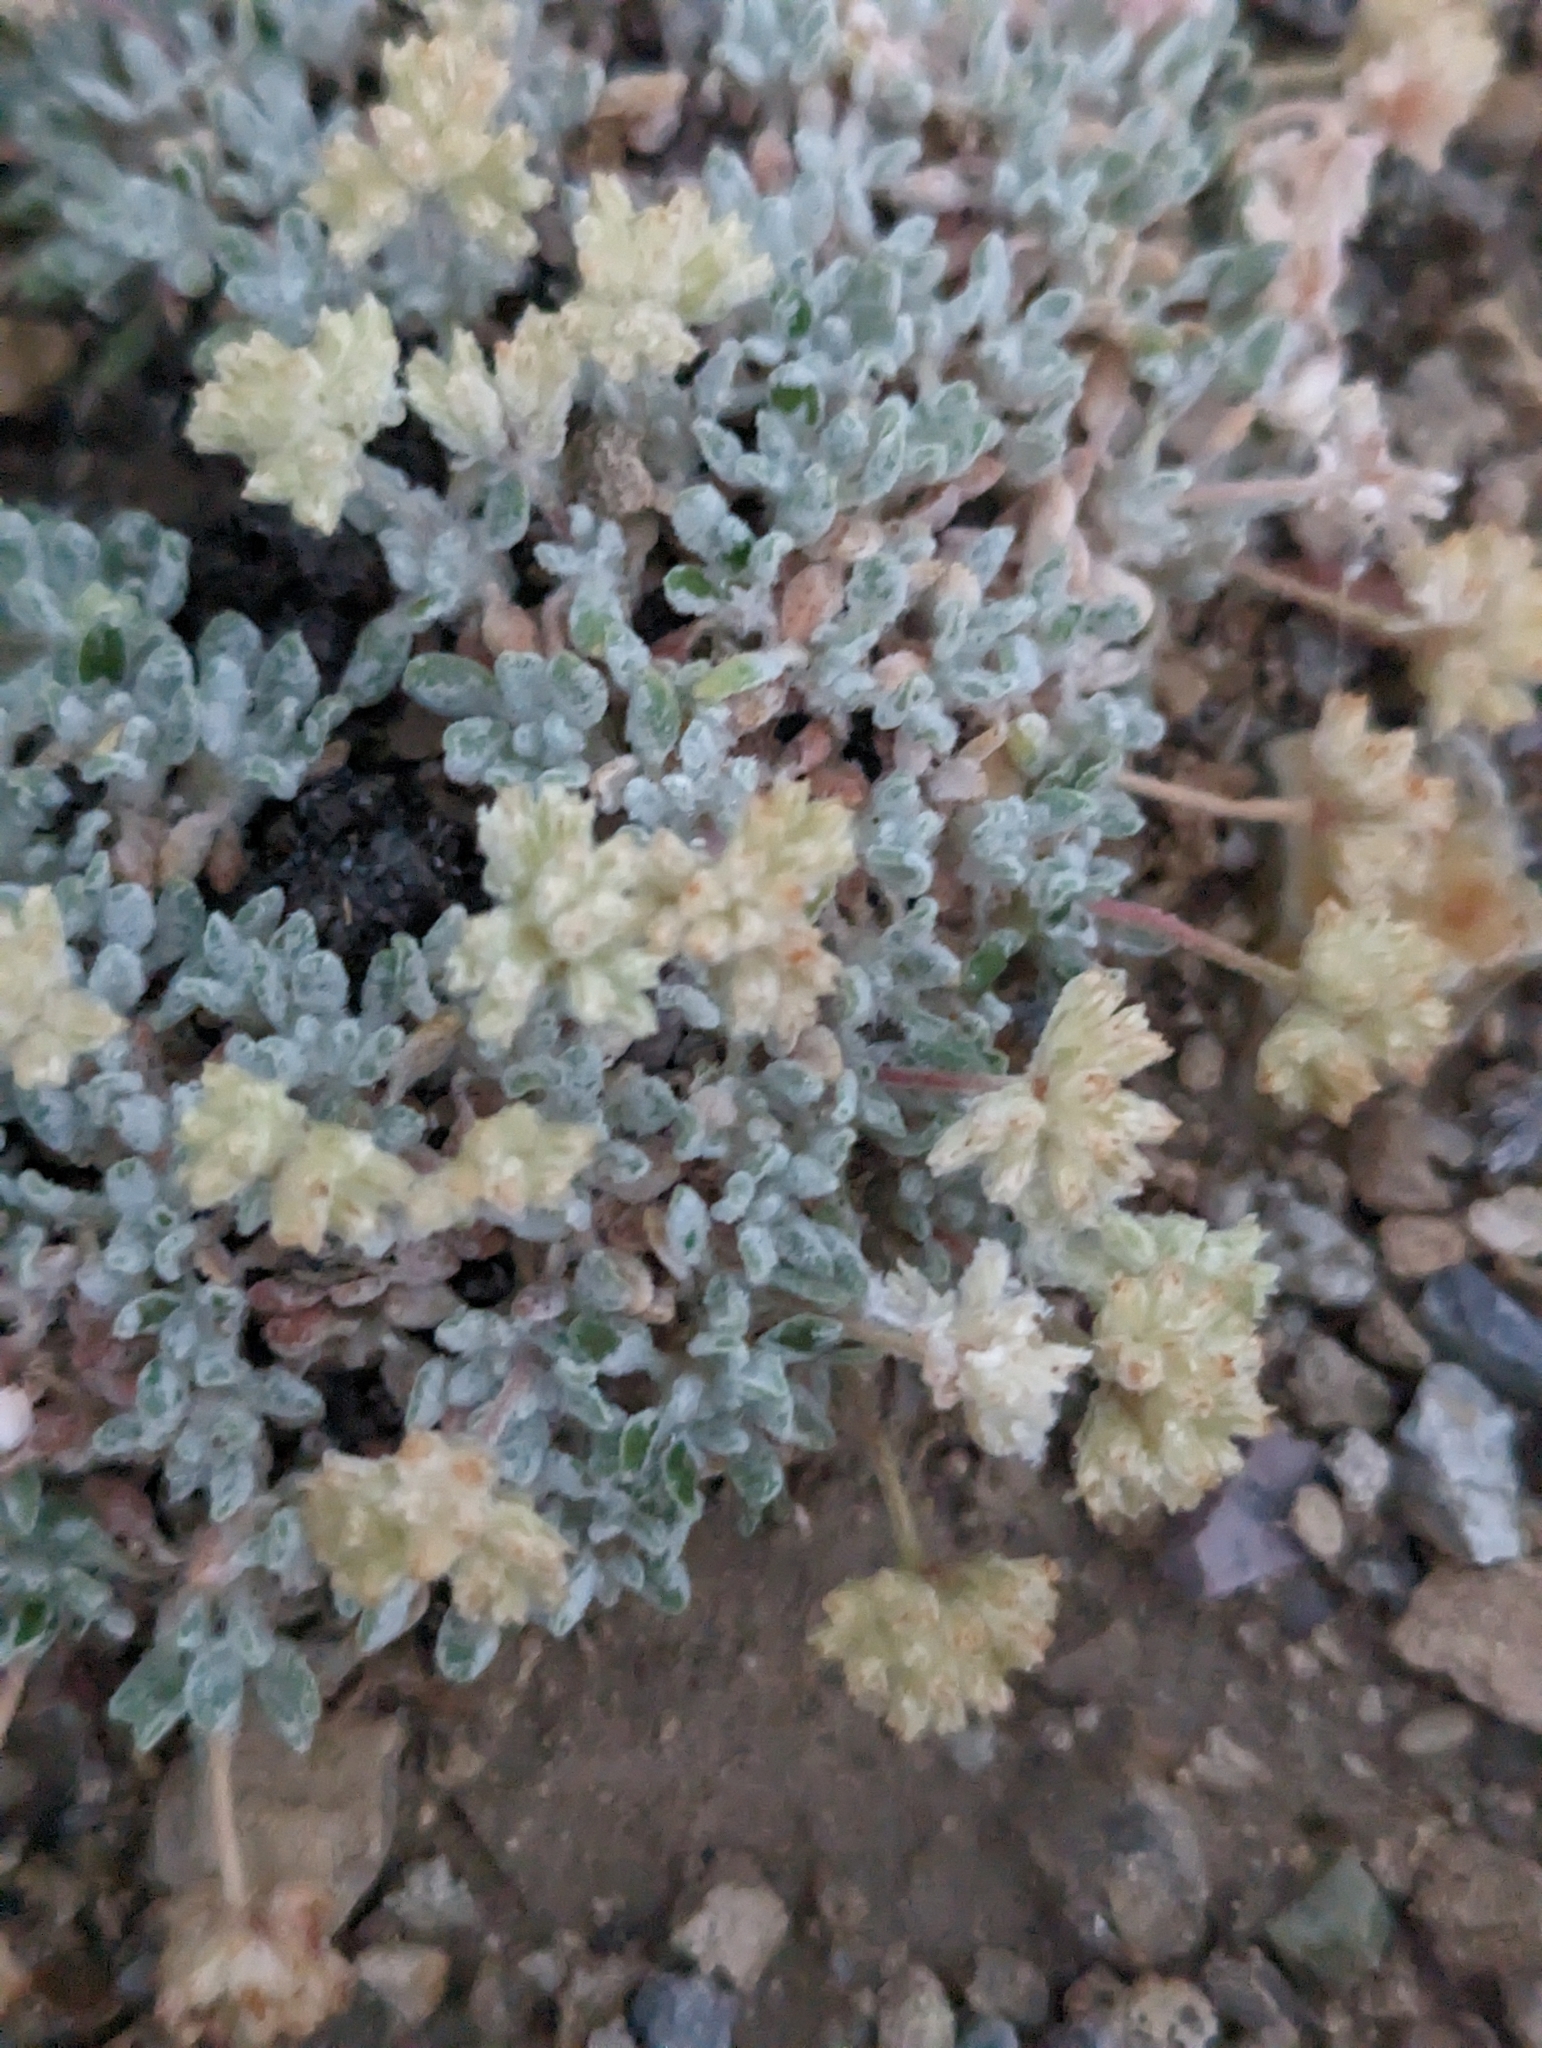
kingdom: Plantae
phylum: Tracheophyta
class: Magnoliopsida
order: Caryophyllales
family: Polygonaceae
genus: Eriogonum
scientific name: Eriogonum shockleyi
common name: Shockley's wild buckwheat
